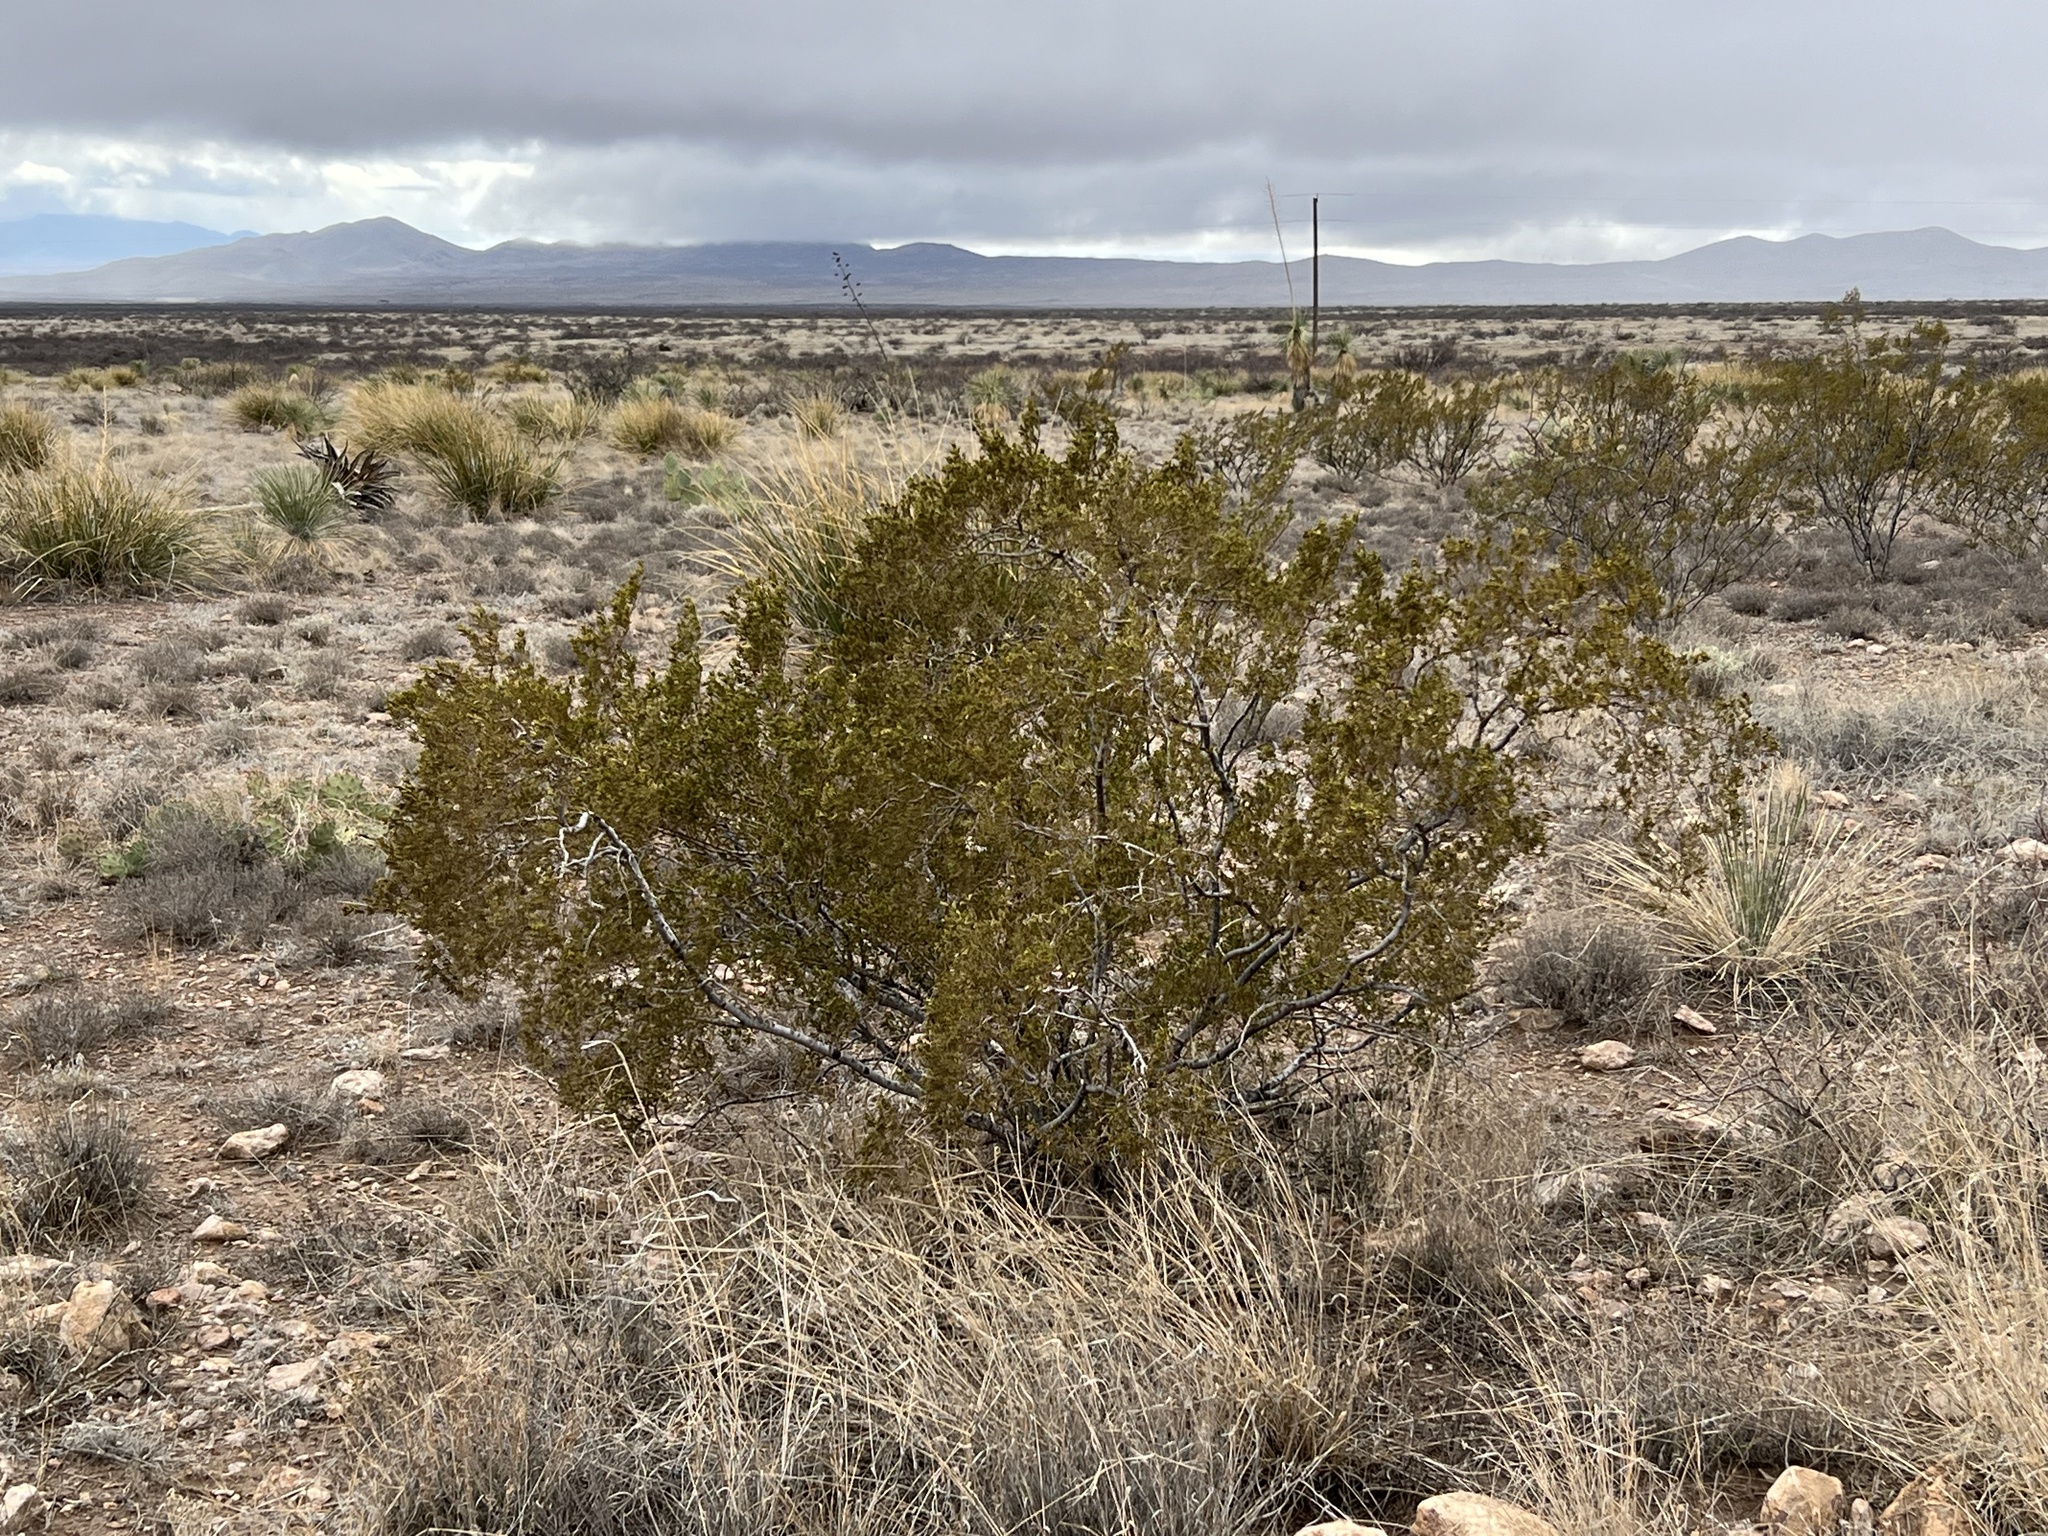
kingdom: Plantae
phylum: Tracheophyta
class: Magnoliopsida
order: Zygophyllales
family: Zygophyllaceae
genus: Larrea
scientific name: Larrea tridentata
